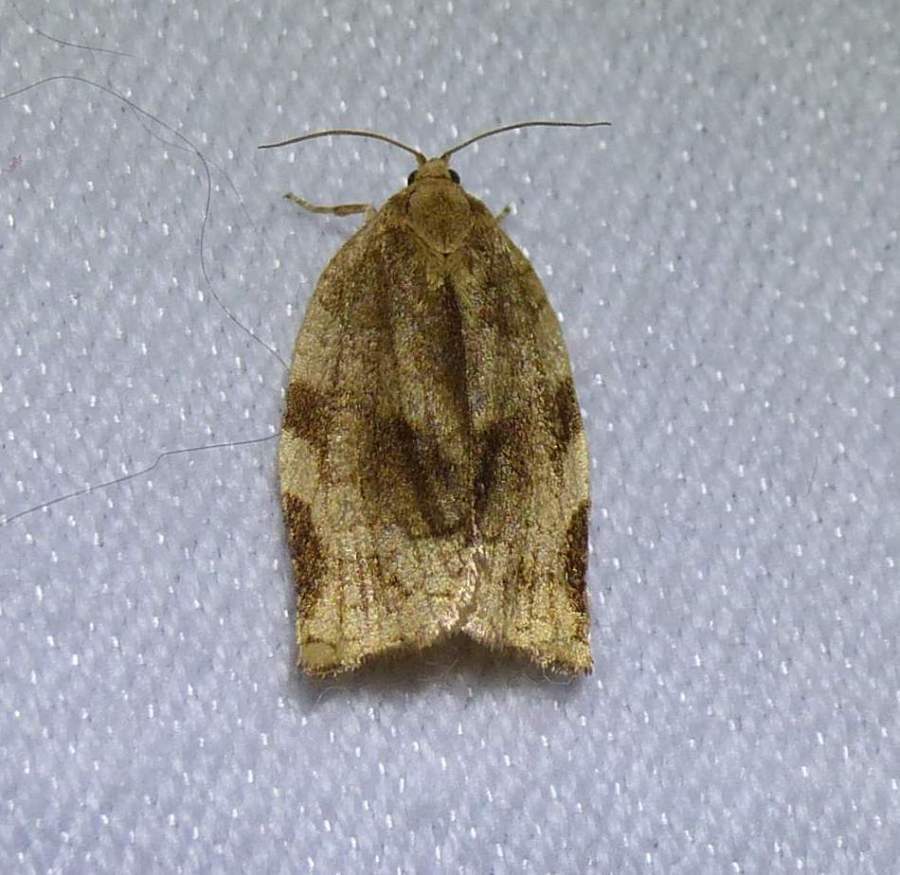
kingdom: Animalia
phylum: Arthropoda
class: Insecta
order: Lepidoptera
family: Tortricidae
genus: Choristoneura
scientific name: Choristoneura fractivittana
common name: Broken-banded leafroller moth
